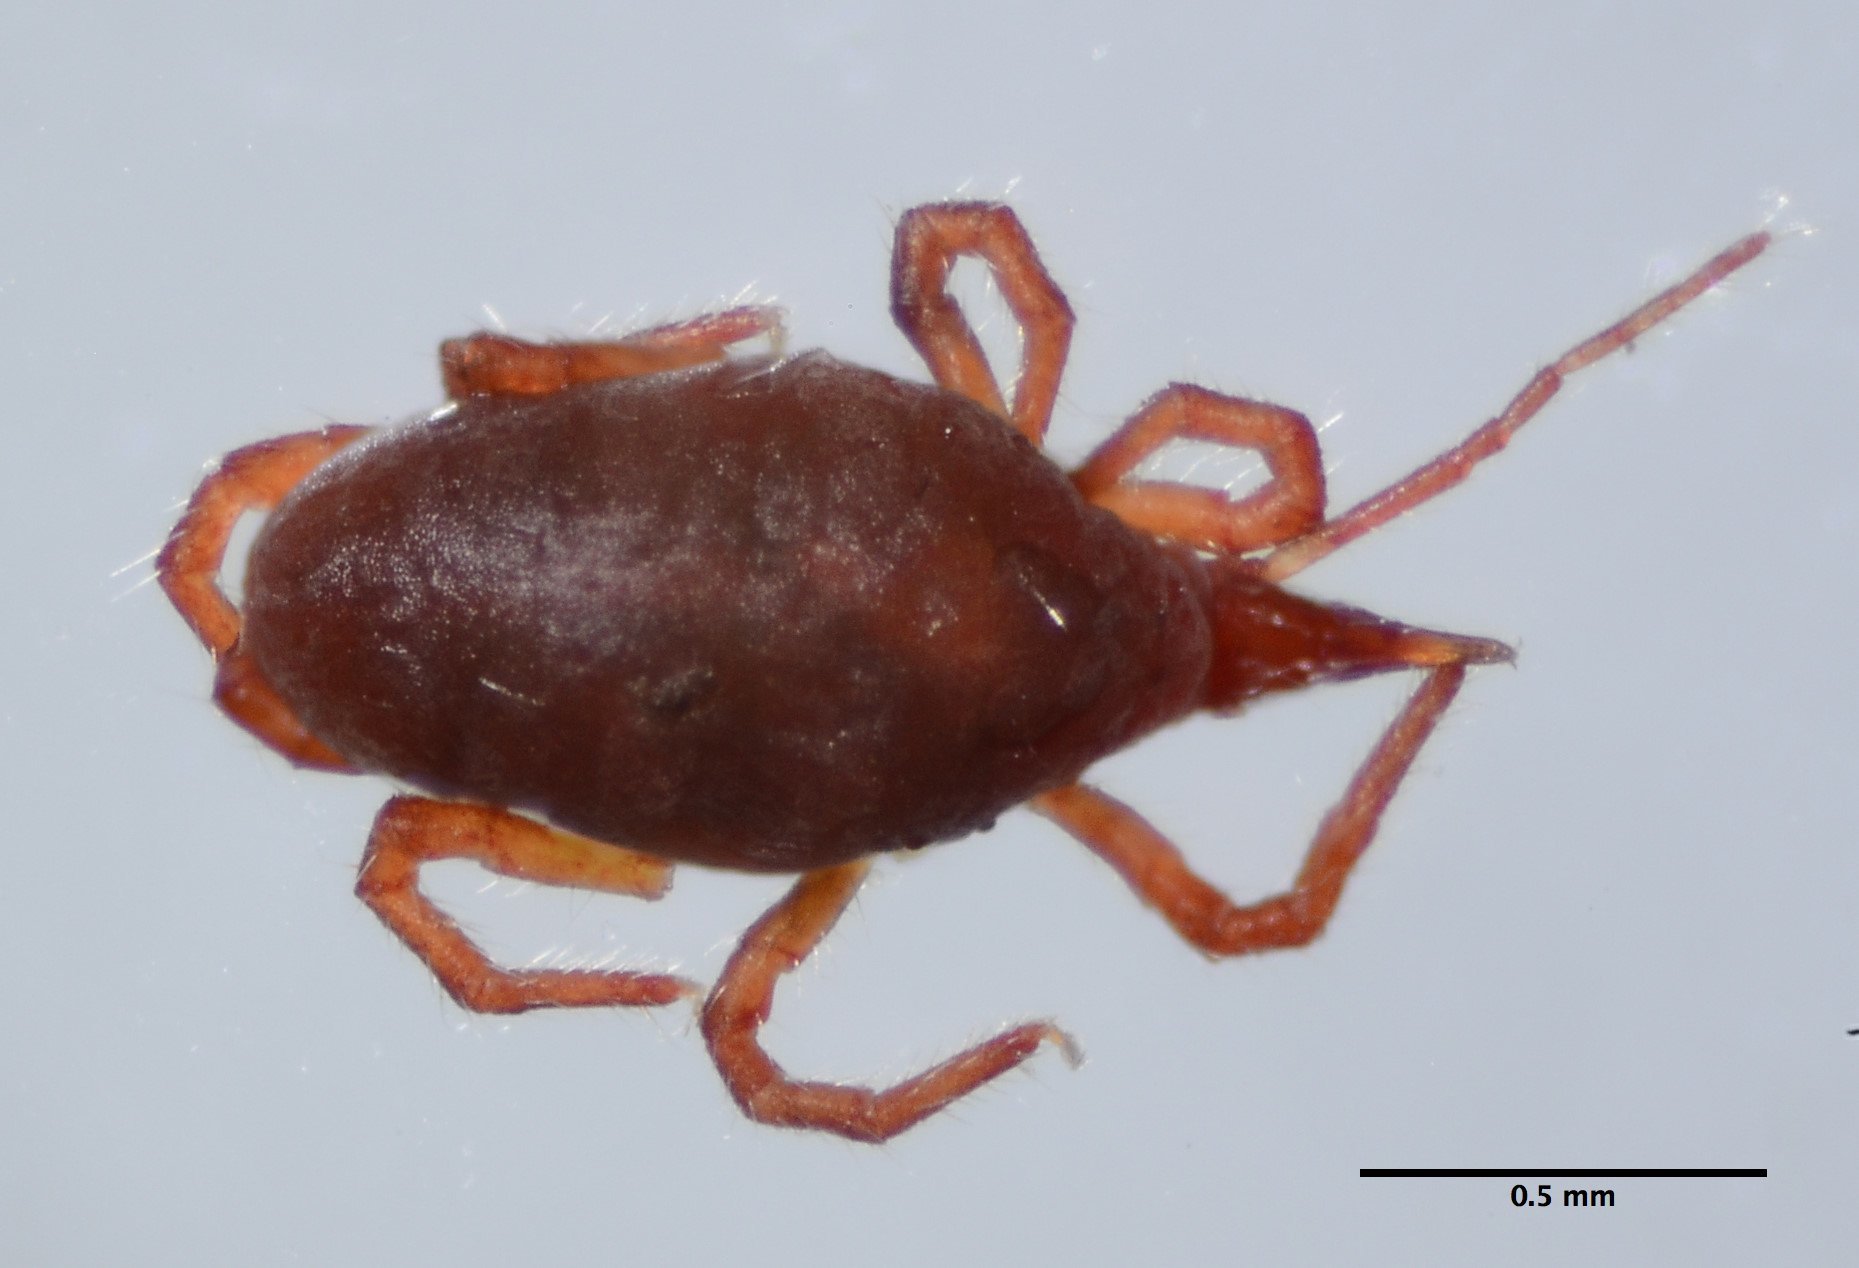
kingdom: Animalia
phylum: Arthropoda
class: Arachnida
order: Trombidiformes
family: Bdellidae
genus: Neomolgus
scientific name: Neomolgus littoralis
